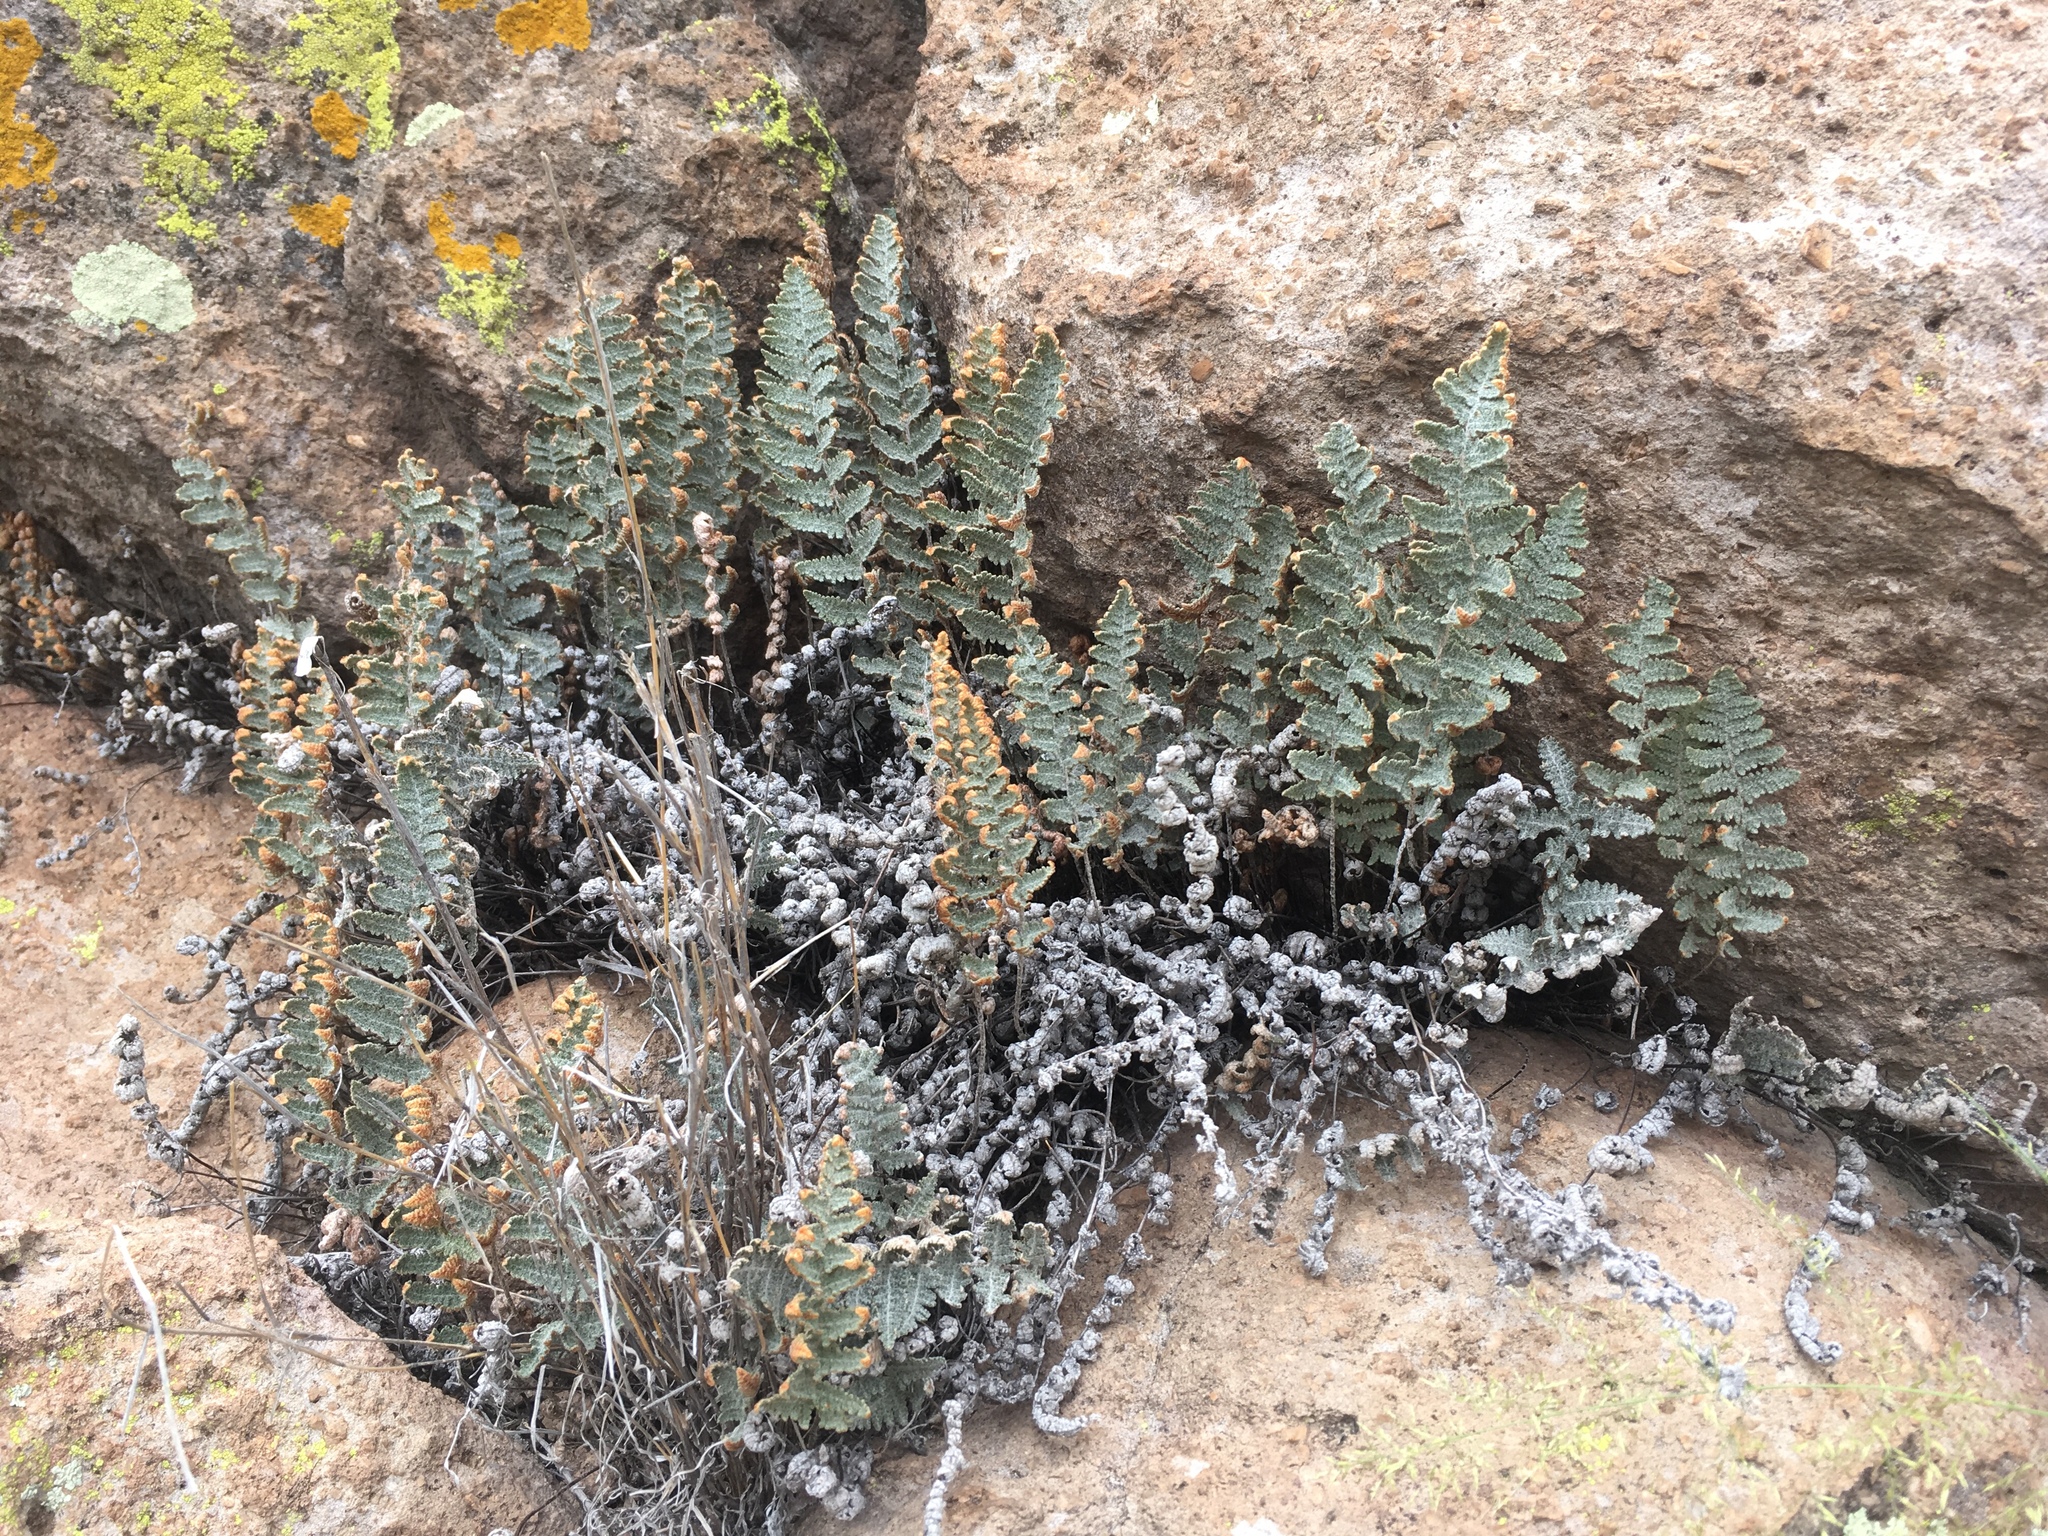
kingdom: Plantae
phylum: Tracheophyta
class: Polypodiopsida
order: Polypodiales
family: Pteridaceae
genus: Myriopteris
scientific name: Myriopteris lindheimeri
